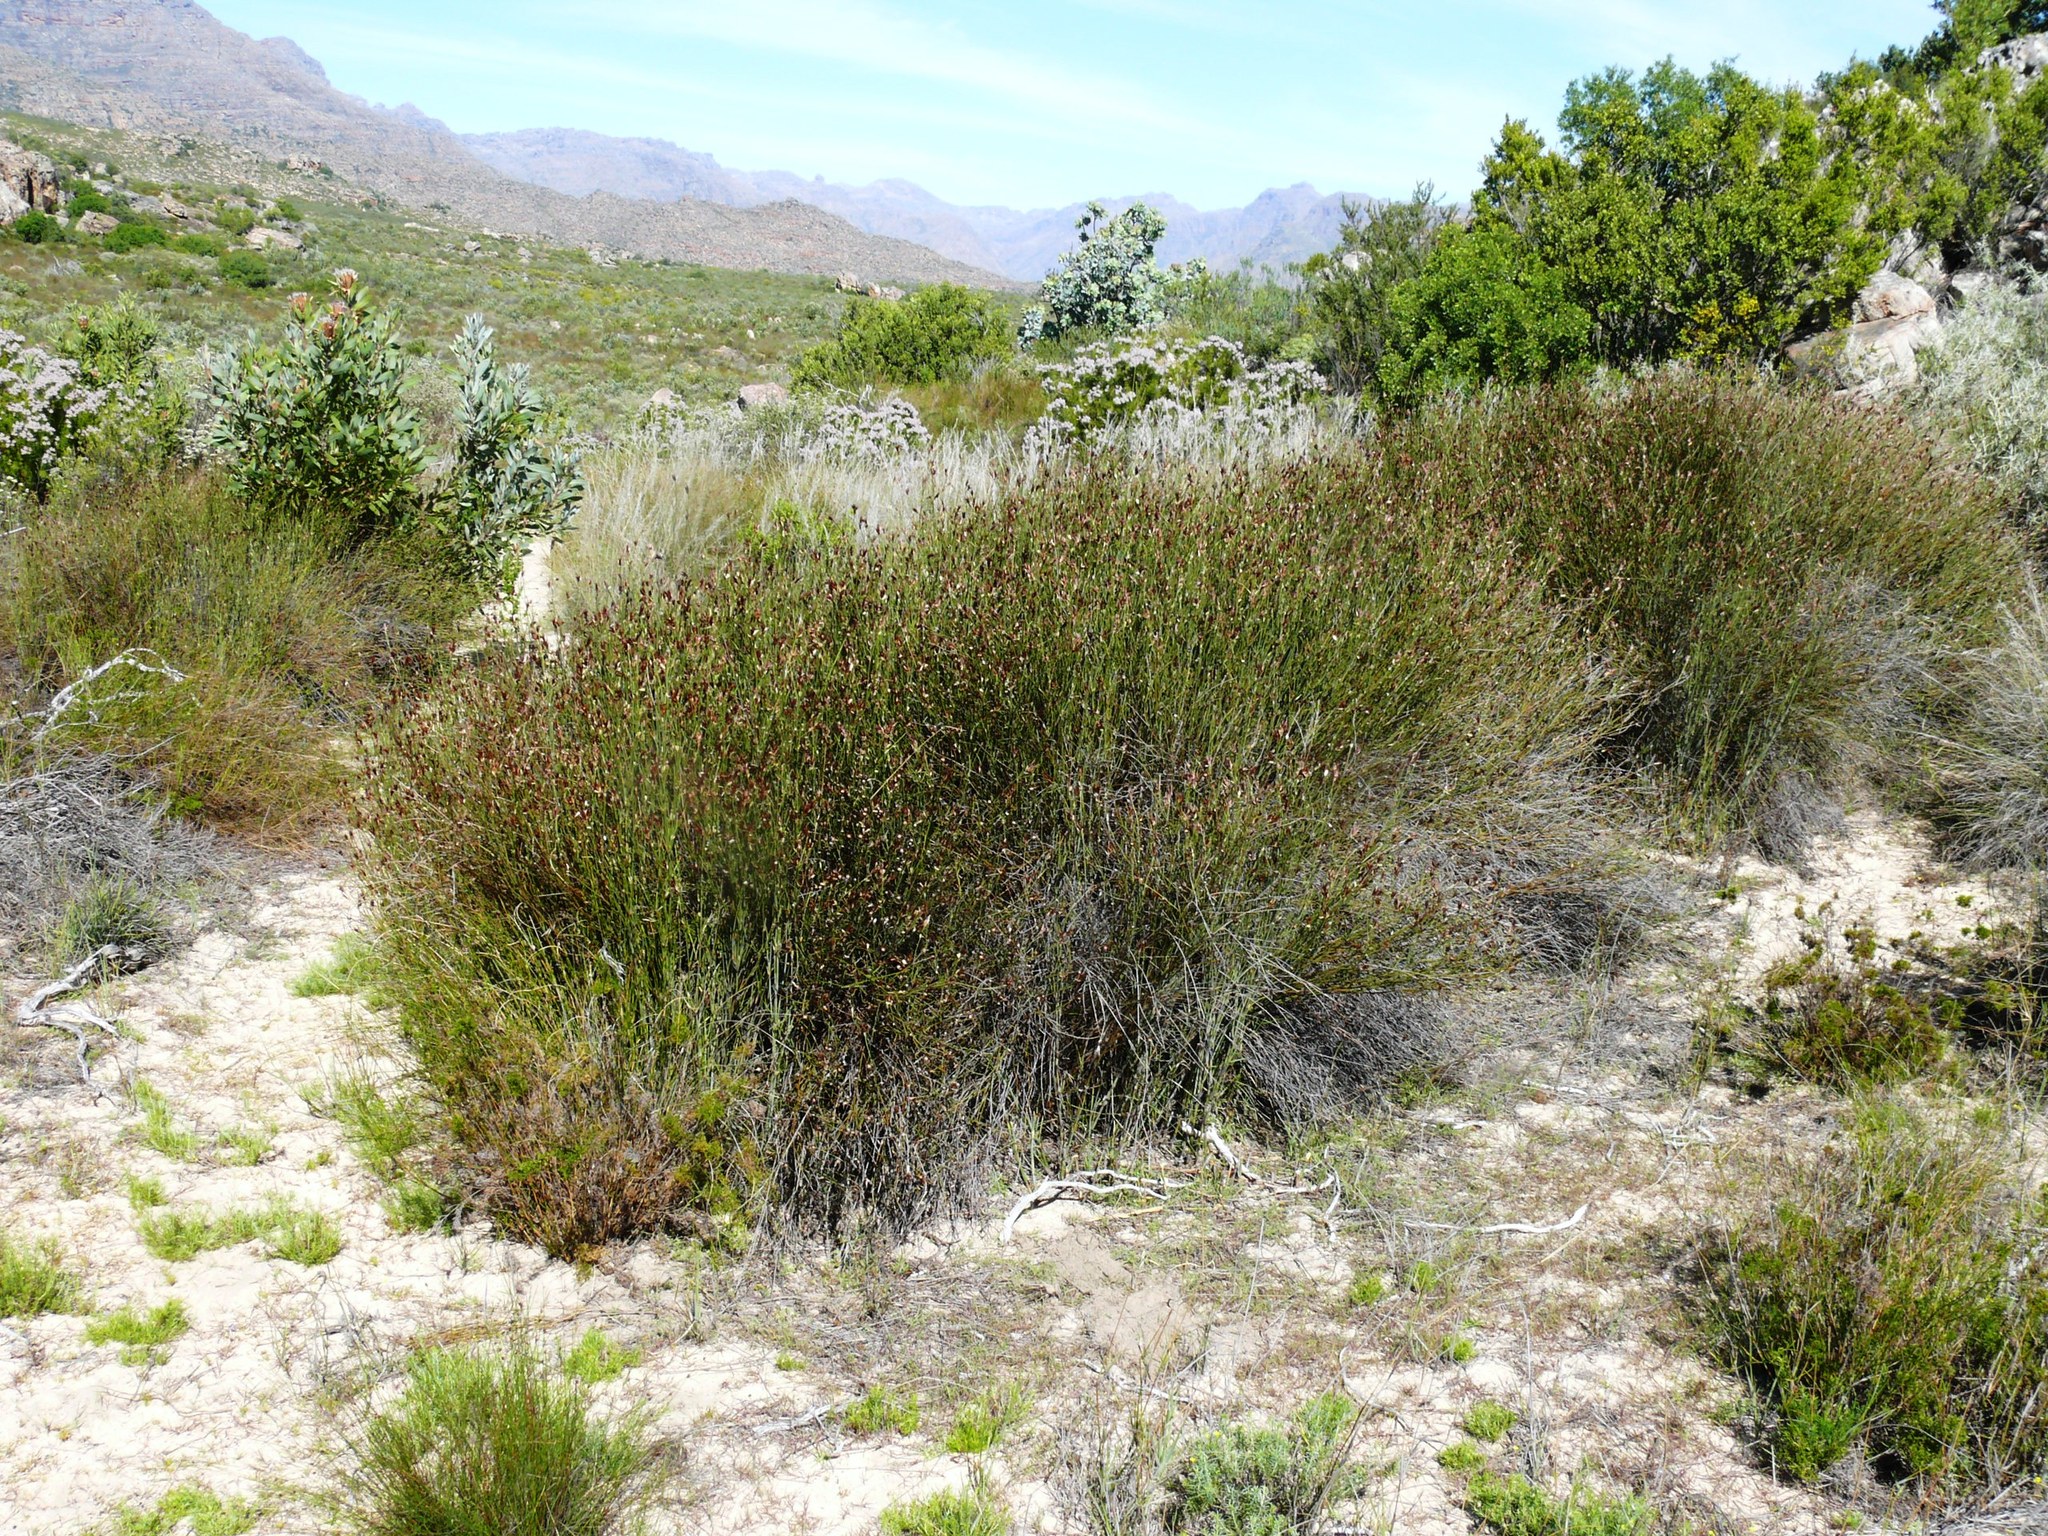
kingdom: Plantae
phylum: Tracheophyta
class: Liliopsida
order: Poales
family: Restionaceae
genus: Willdenowia
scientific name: Willdenowia incurvata
